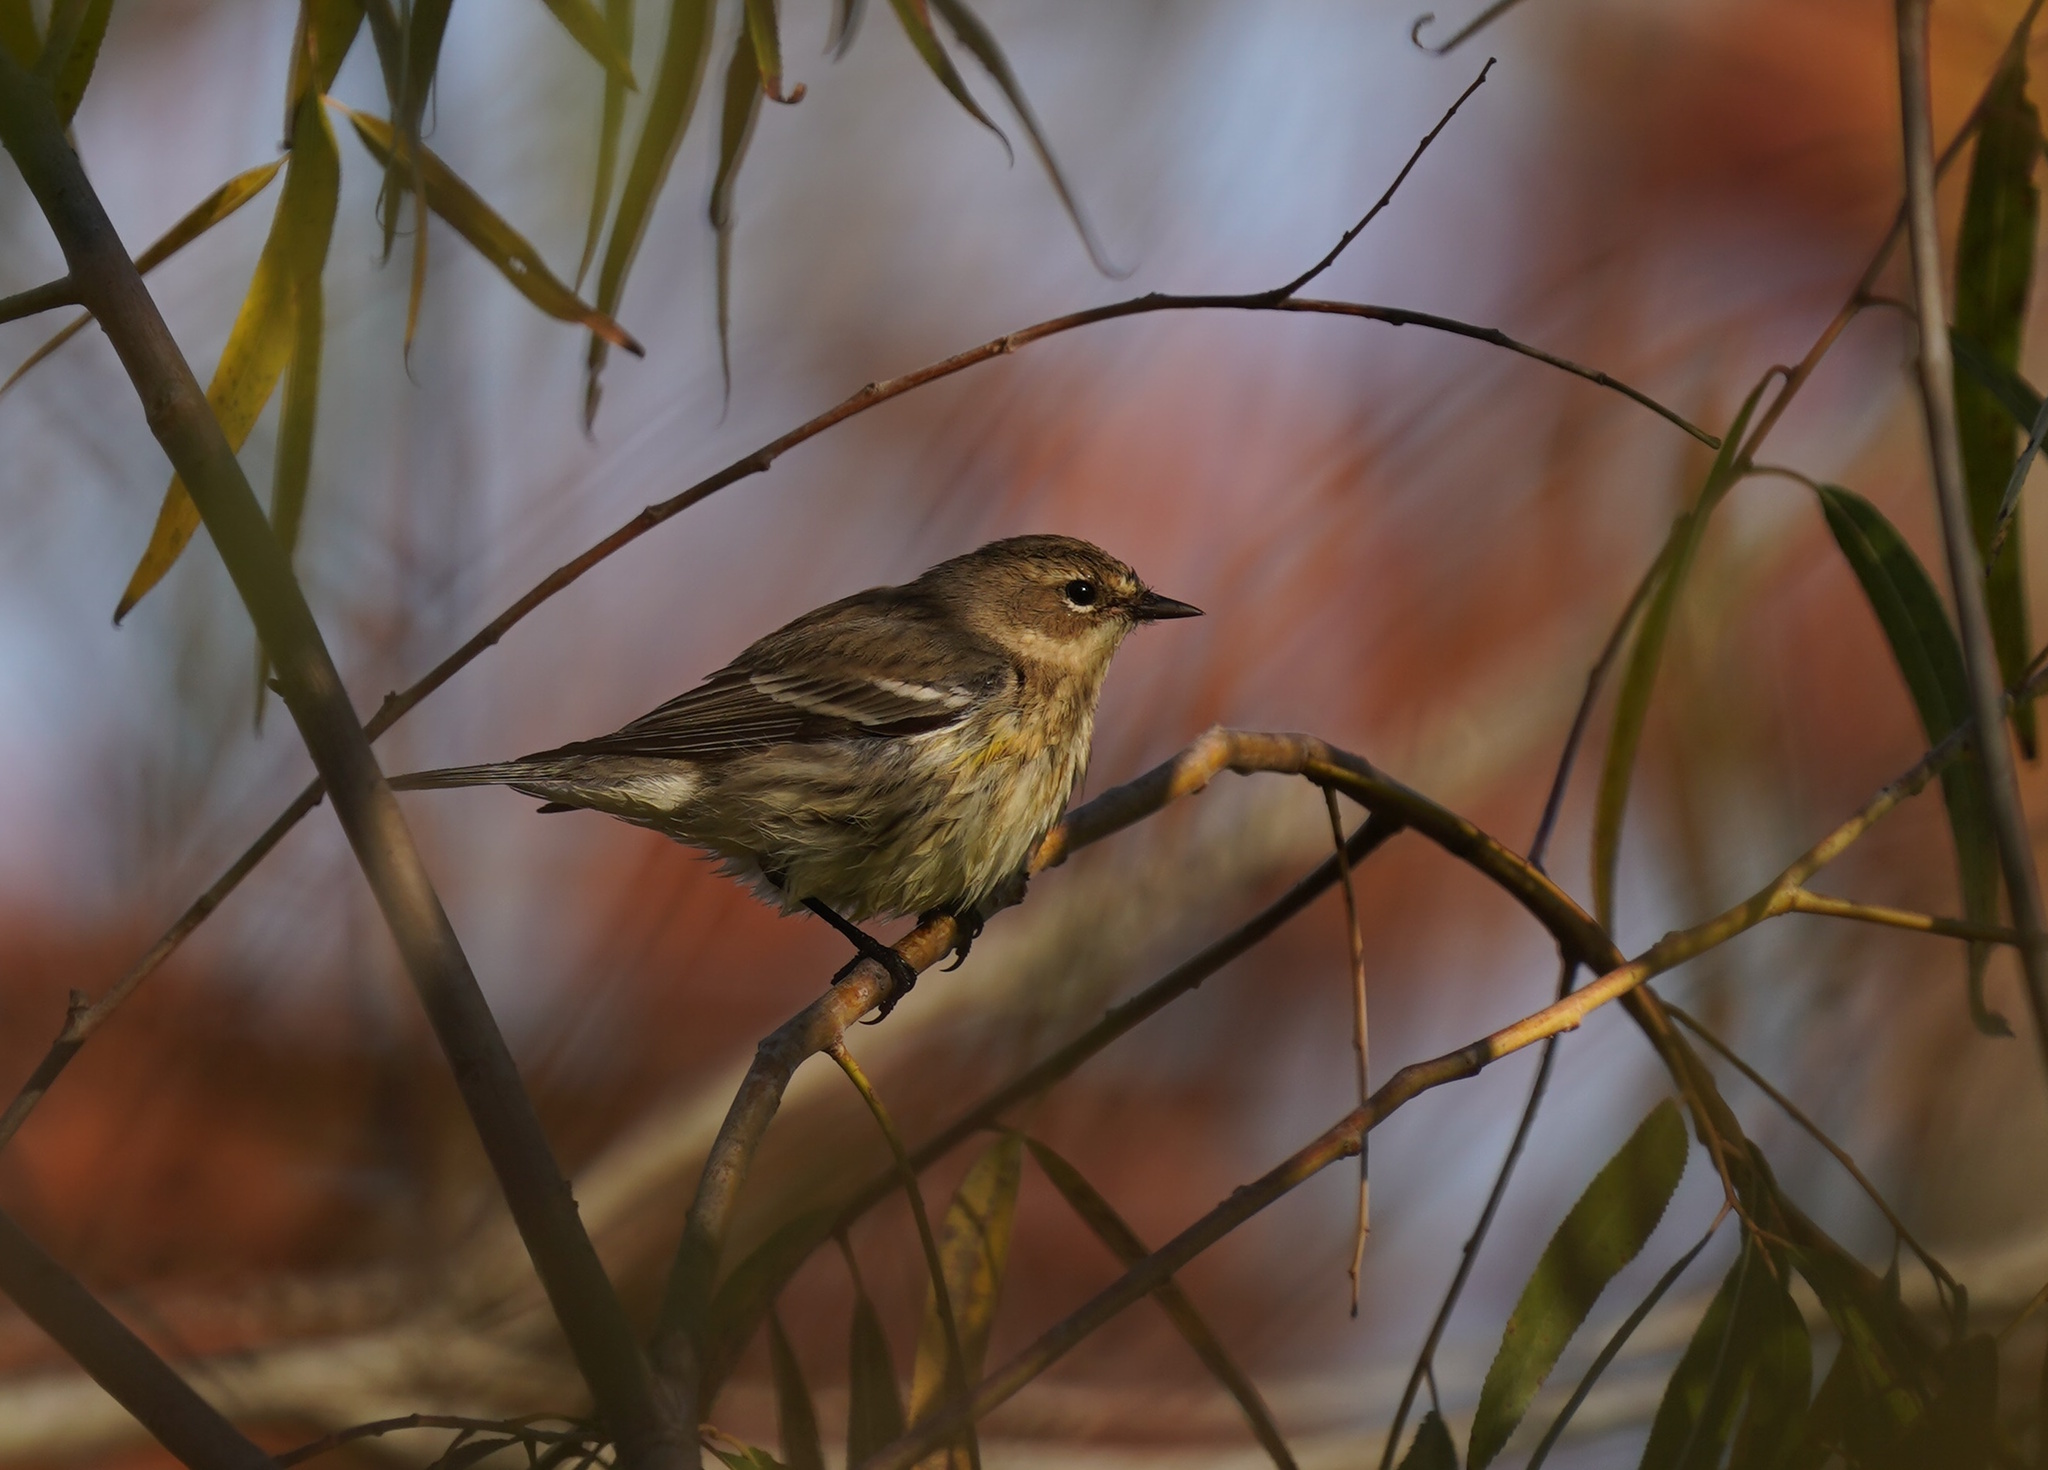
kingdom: Animalia
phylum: Chordata
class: Aves
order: Passeriformes
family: Parulidae
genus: Setophaga
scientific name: Setophaga coronata
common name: Myrtle warbler
